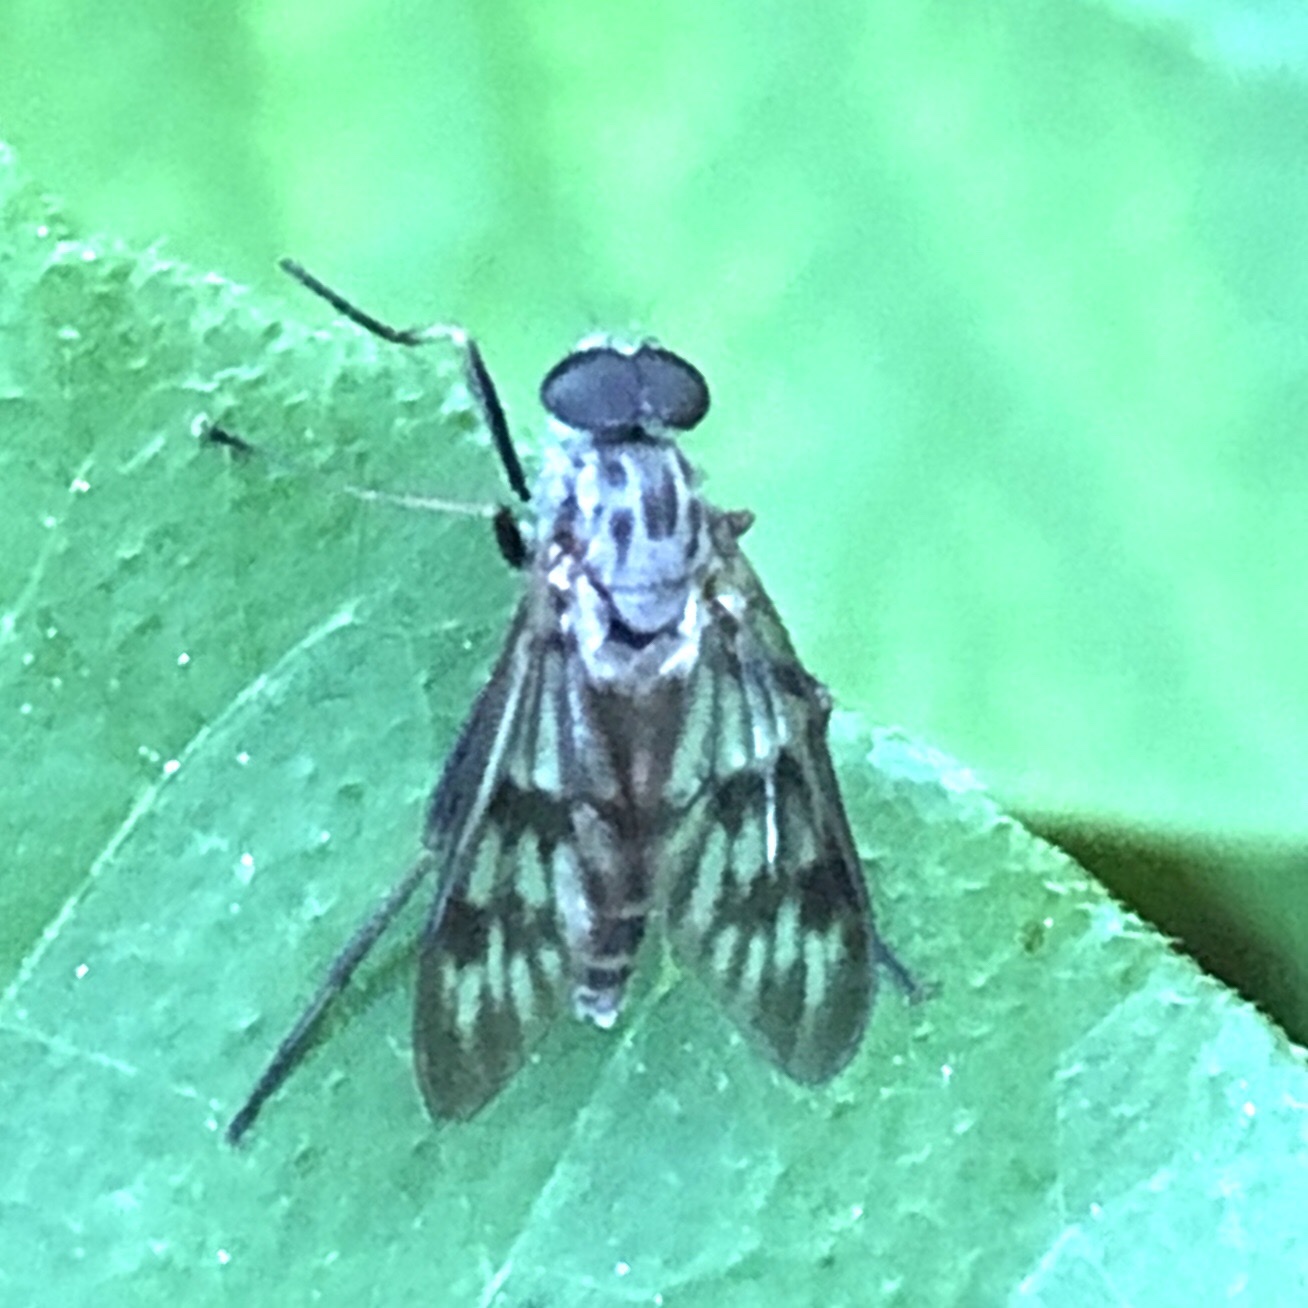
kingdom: Animalia
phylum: Arthropoda
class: Insecta
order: Diptera
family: Rhagionidae
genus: Rhagio
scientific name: Rhagio mystaceus
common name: Common snipe fly
